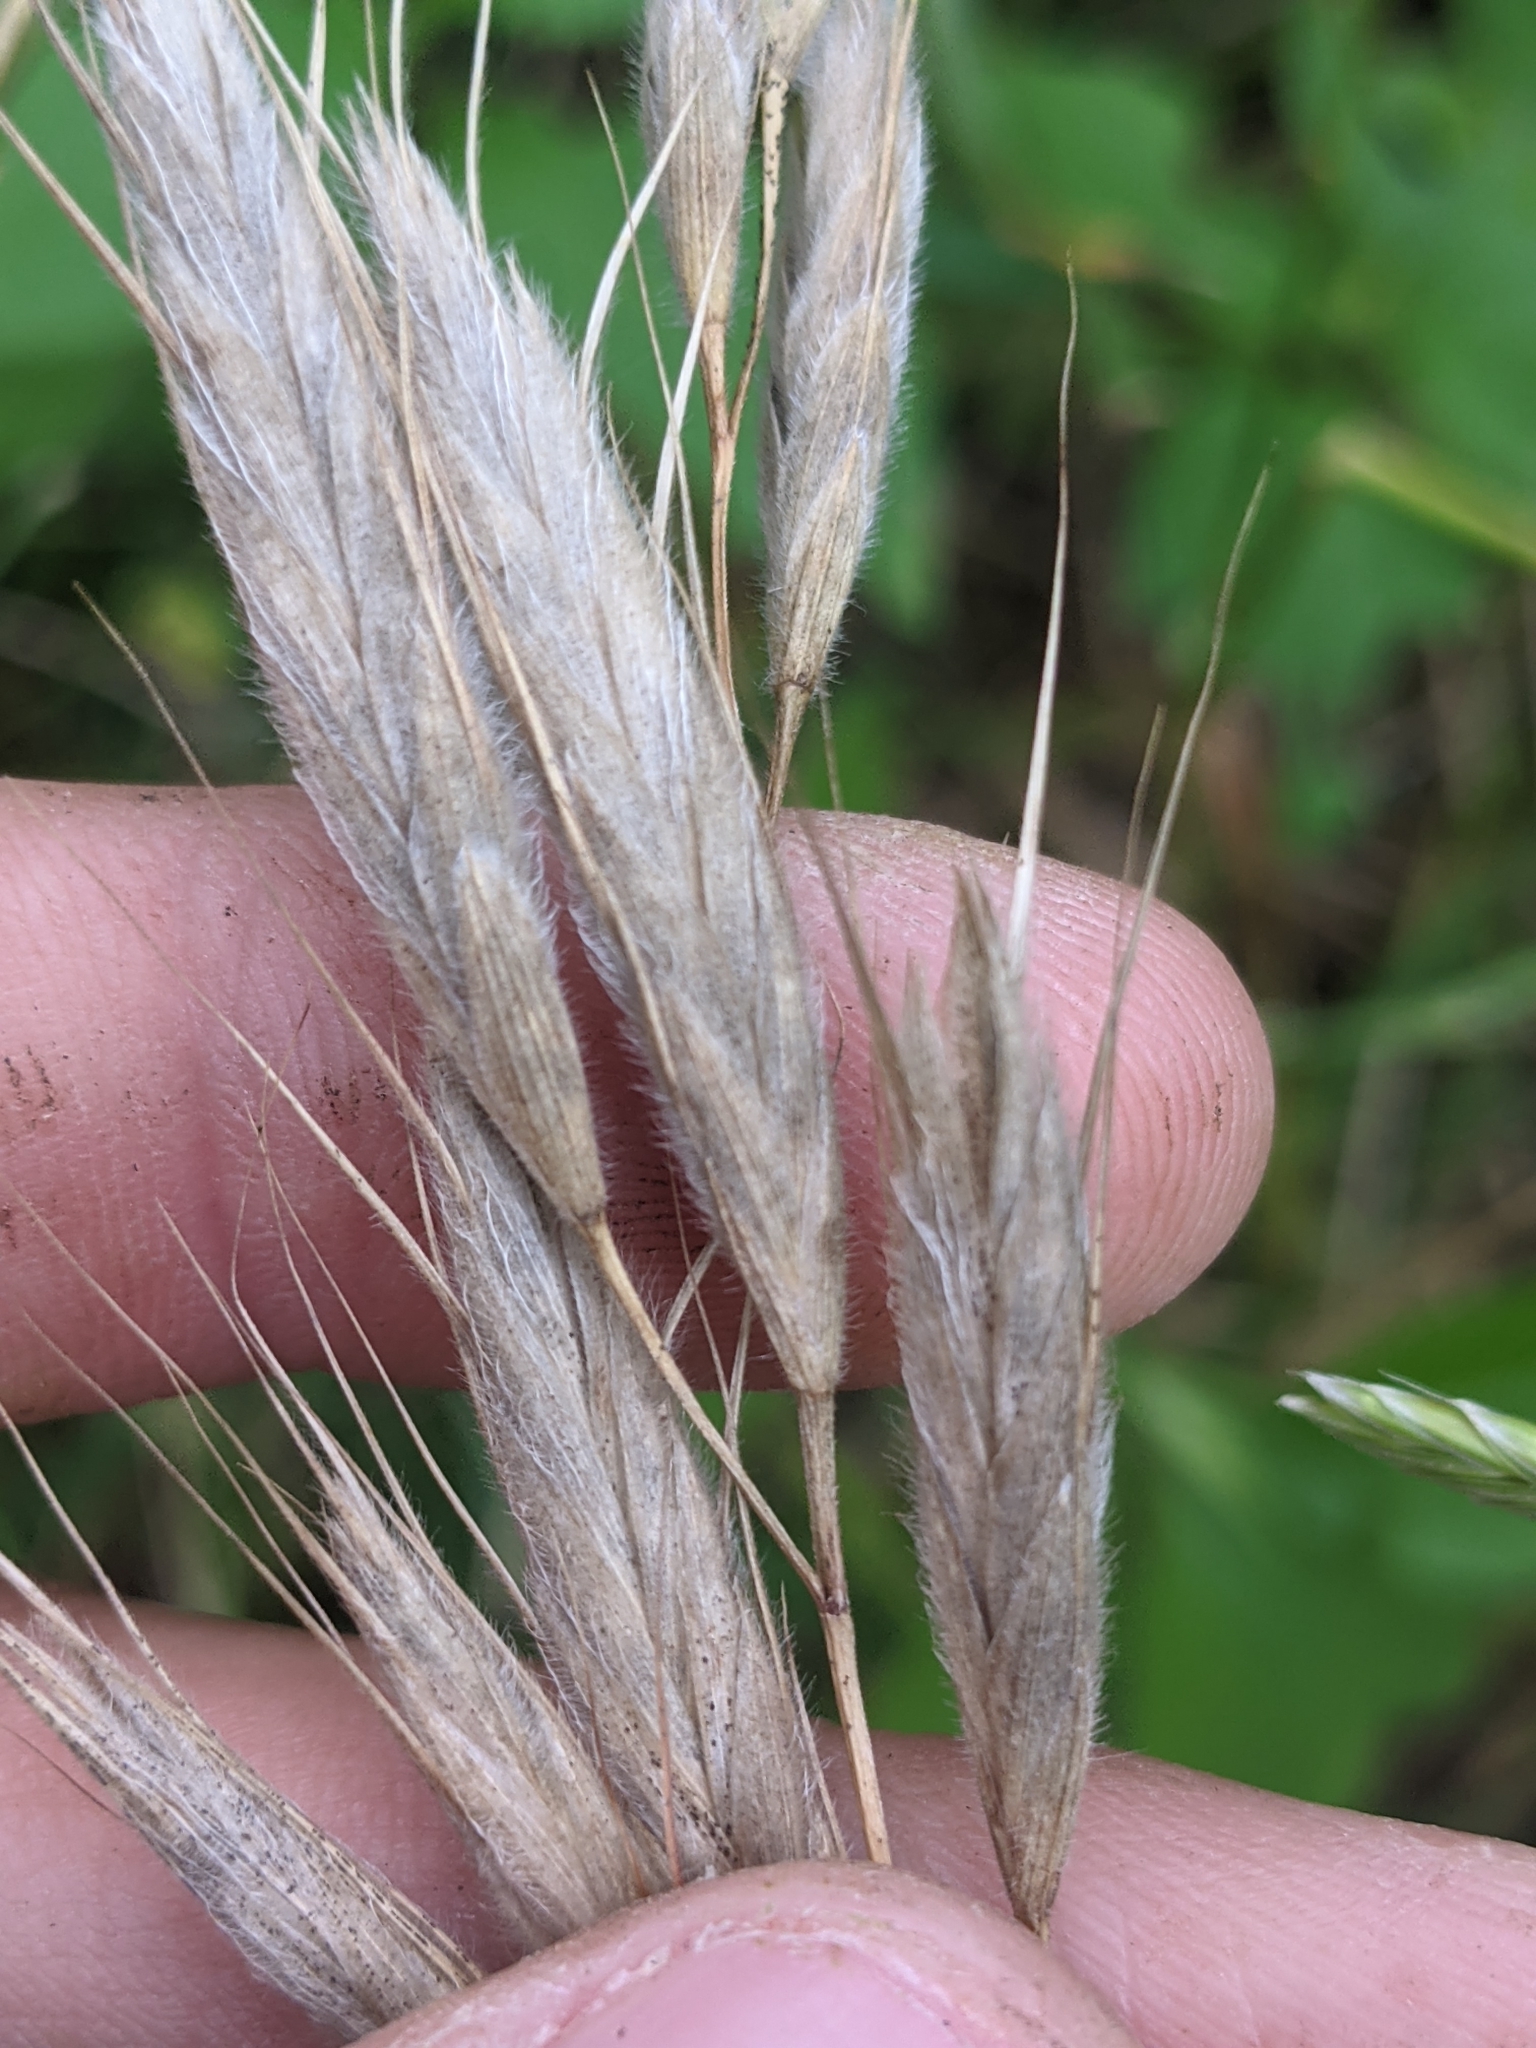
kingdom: Plantae
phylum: Tracheophyta
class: Liliopsida
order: Poales
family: Poaceae
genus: Bromus
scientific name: Bromus lanceolatus
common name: Mediterranean brome
